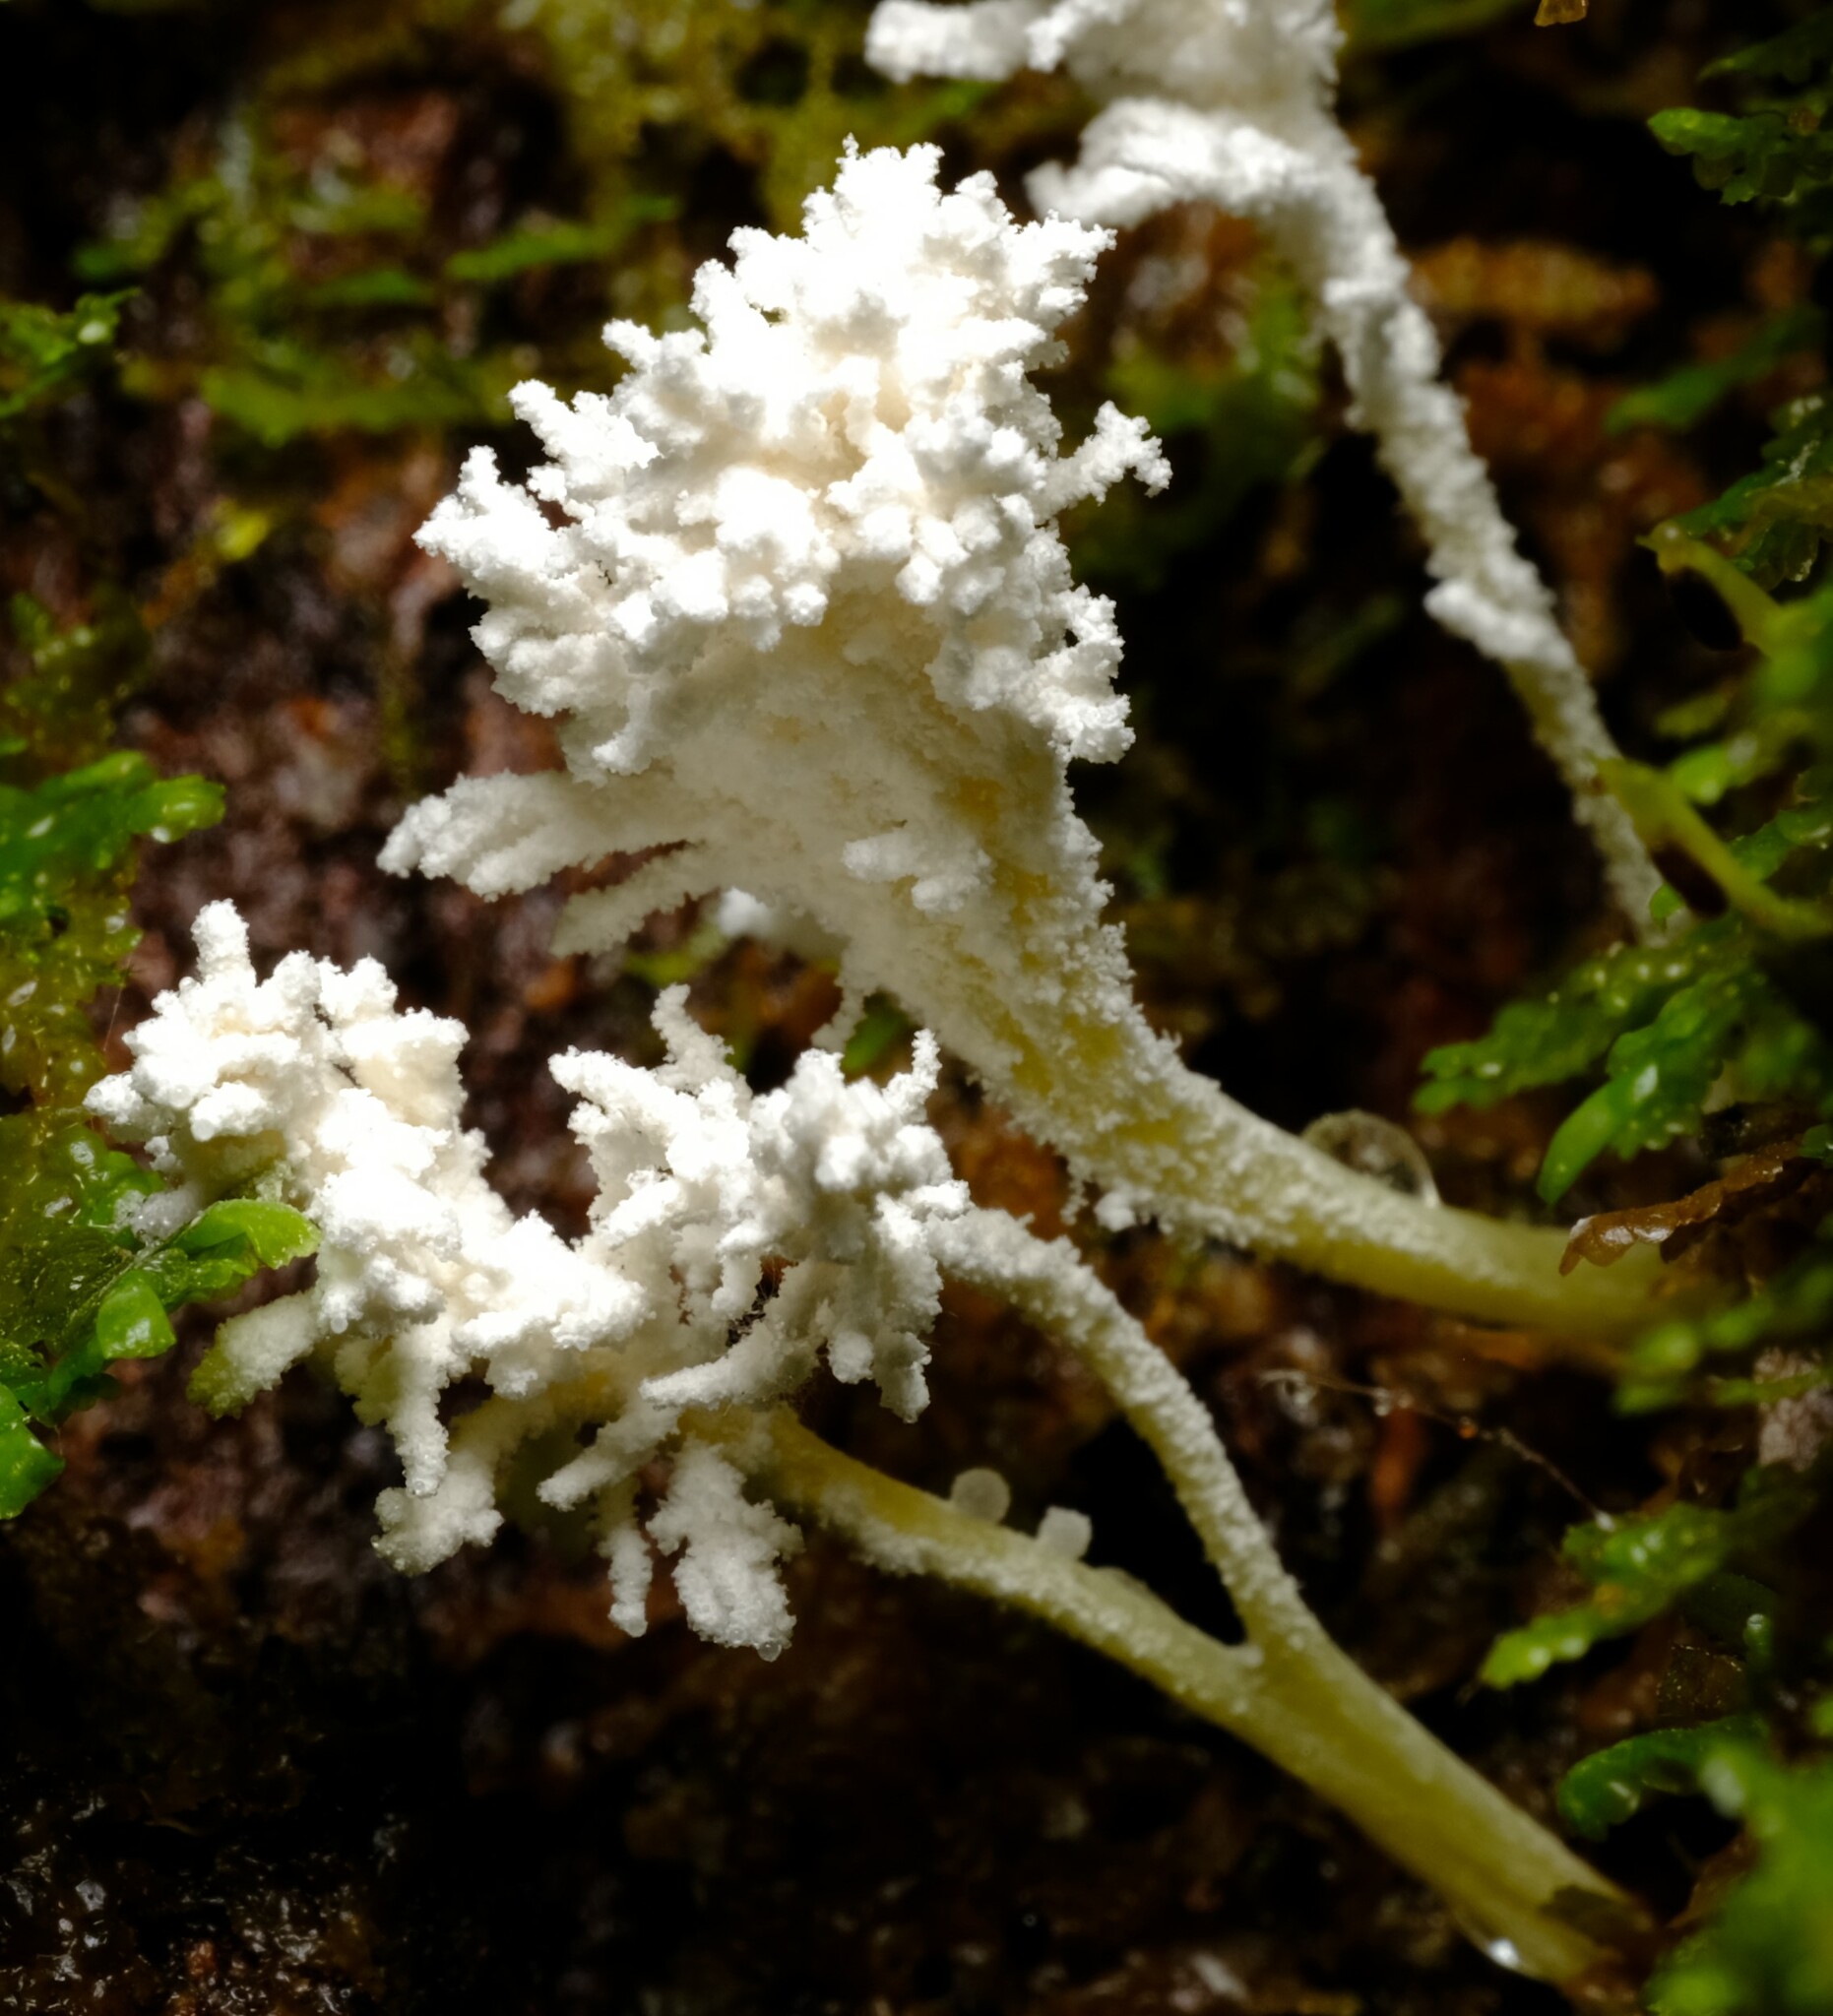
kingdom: Fungi
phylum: Ascomycota
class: Sordariomycetes
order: Hypocreales
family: Cordycipitaceae
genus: Cordyceps
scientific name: Cordyceps tenuipes
